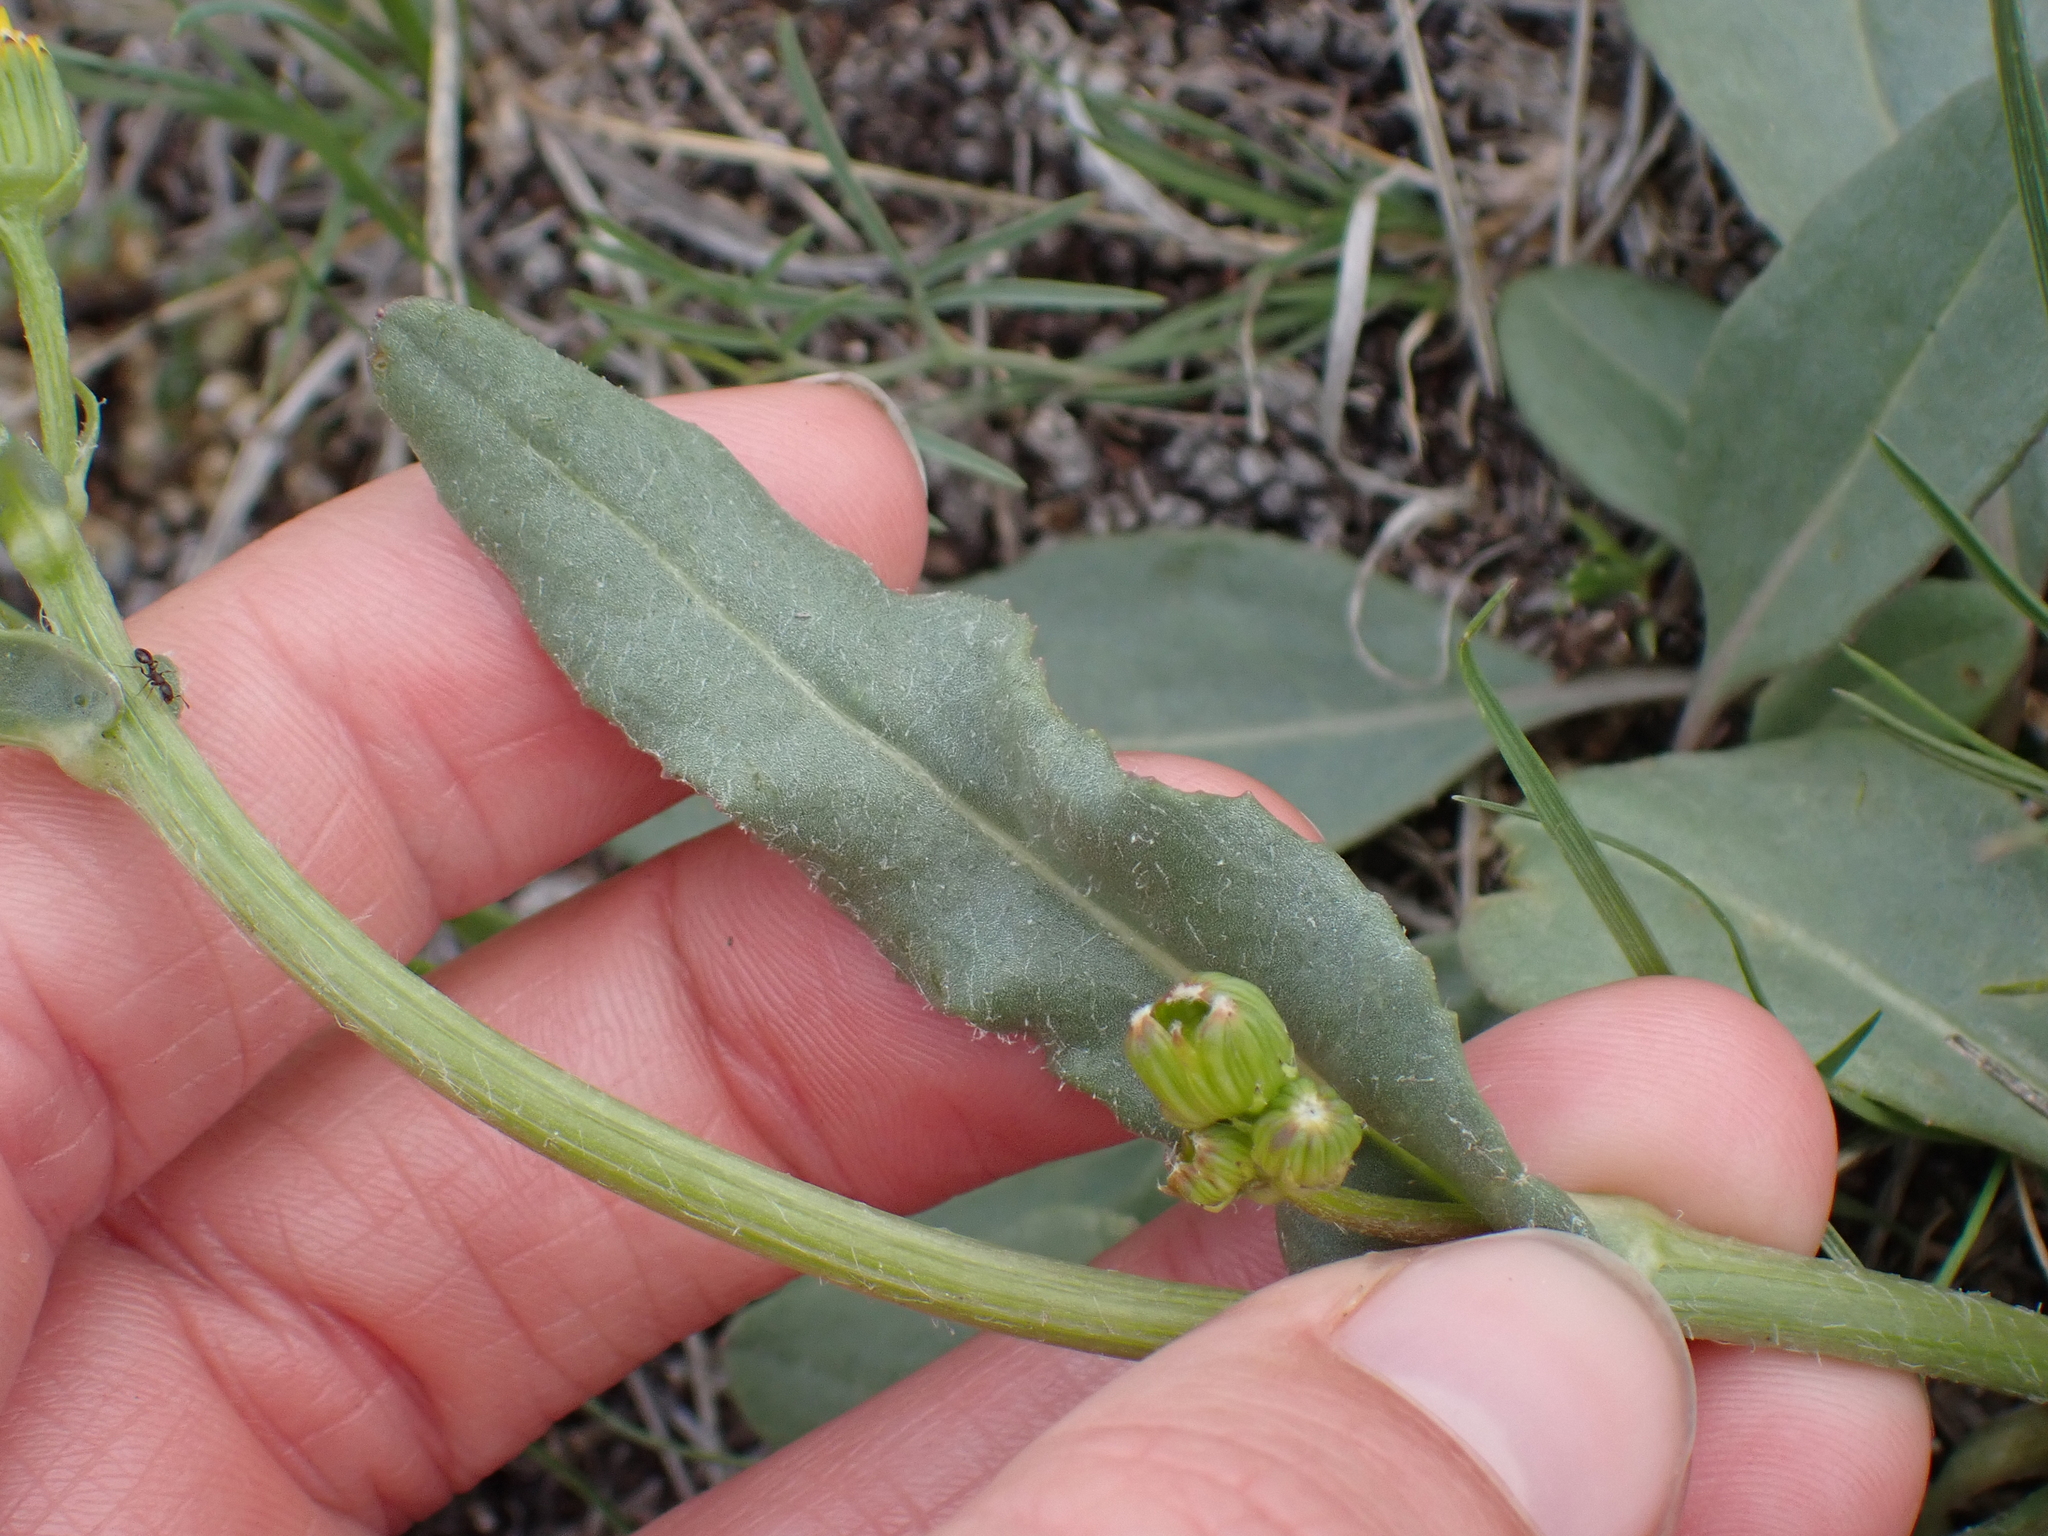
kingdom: Plantae
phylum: Tracheophyta
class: Magnoliopsida
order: Asterales
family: Asteraceae
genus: Senecio
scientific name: Senecio integerrimus
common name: Gaugeplant
